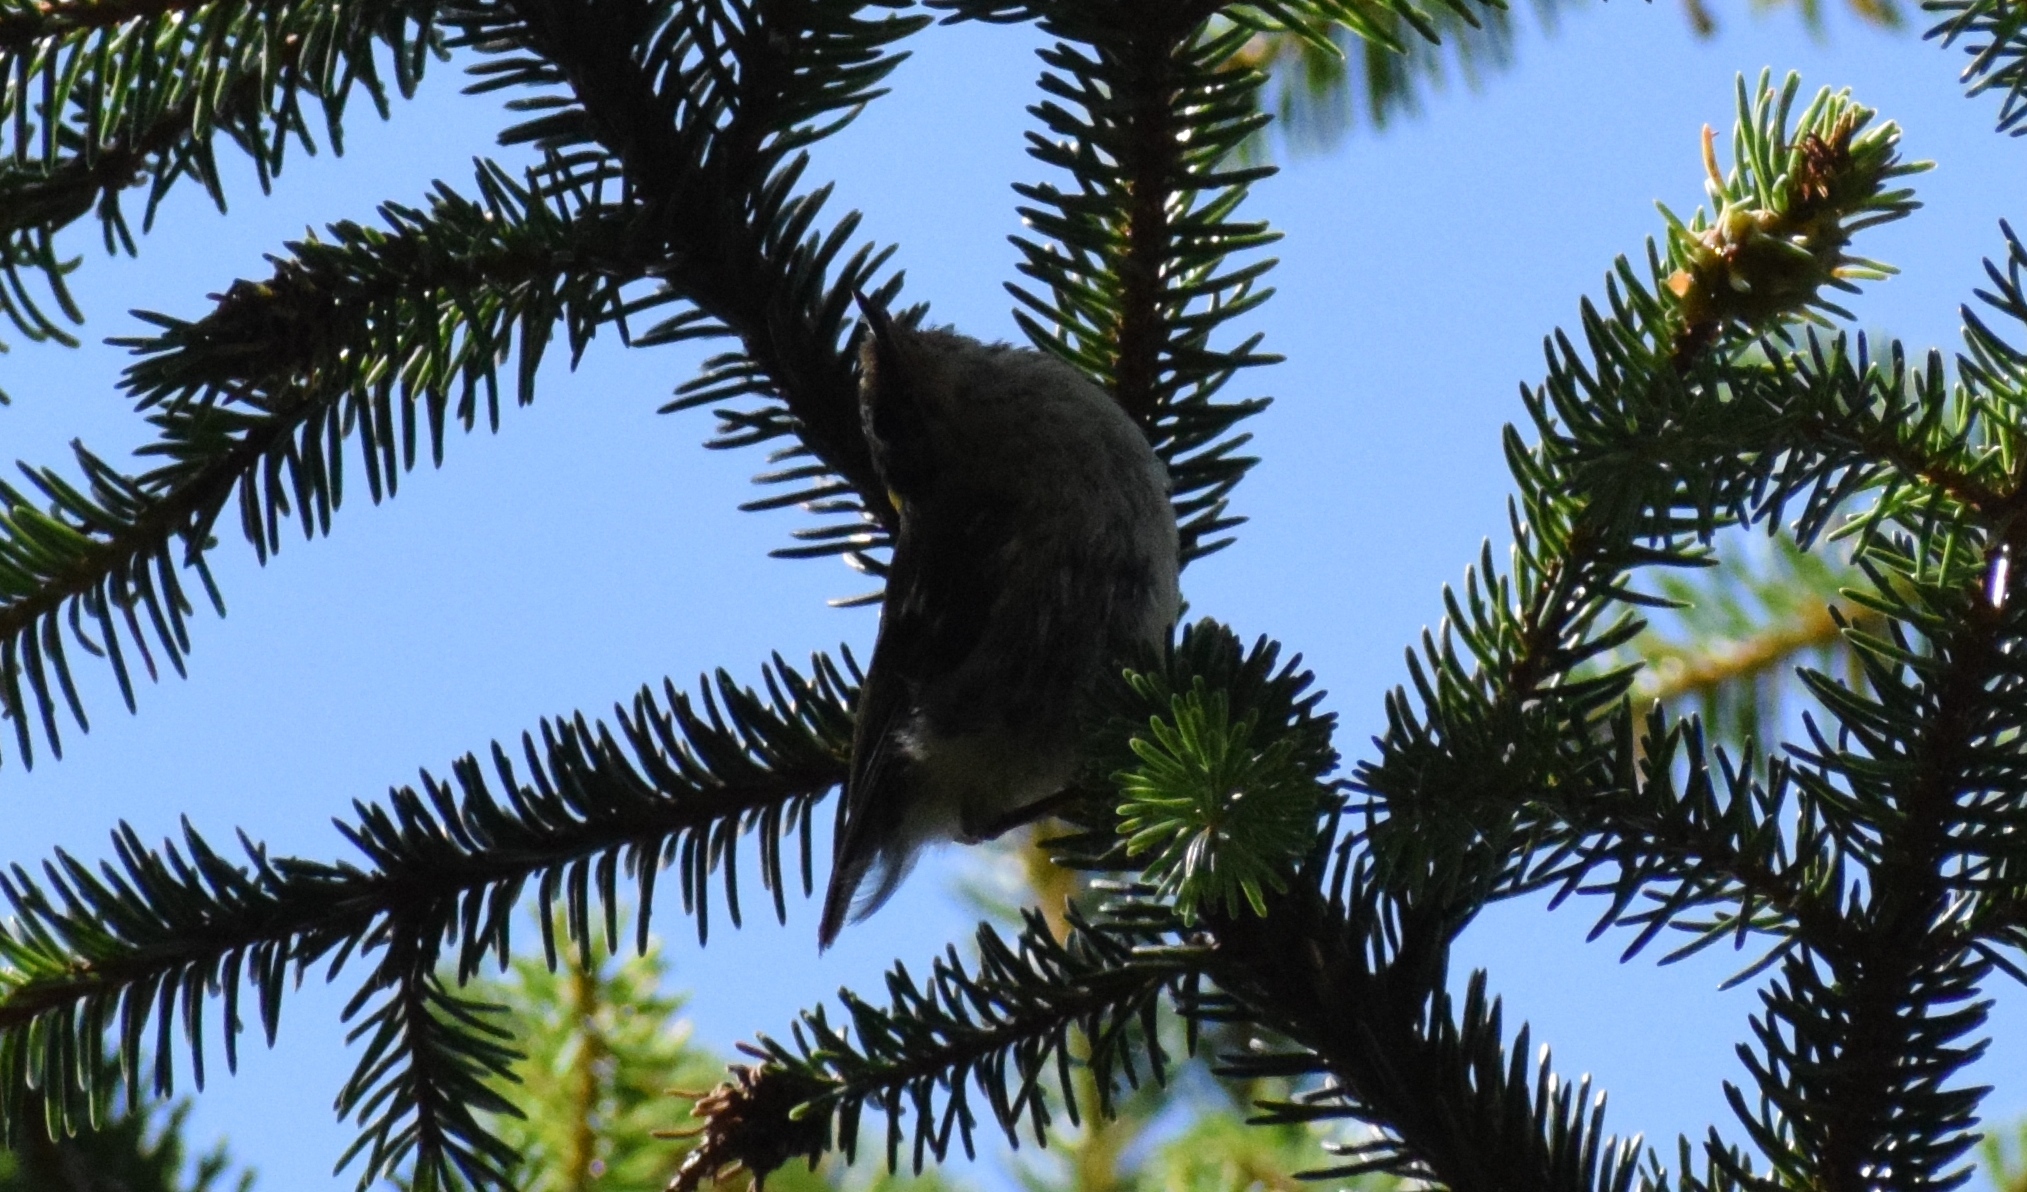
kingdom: Animalia
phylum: Chordata
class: Aves
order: Passeriformes
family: Regulidae
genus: Regulus
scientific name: Regulus regulus
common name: Goldcrest
